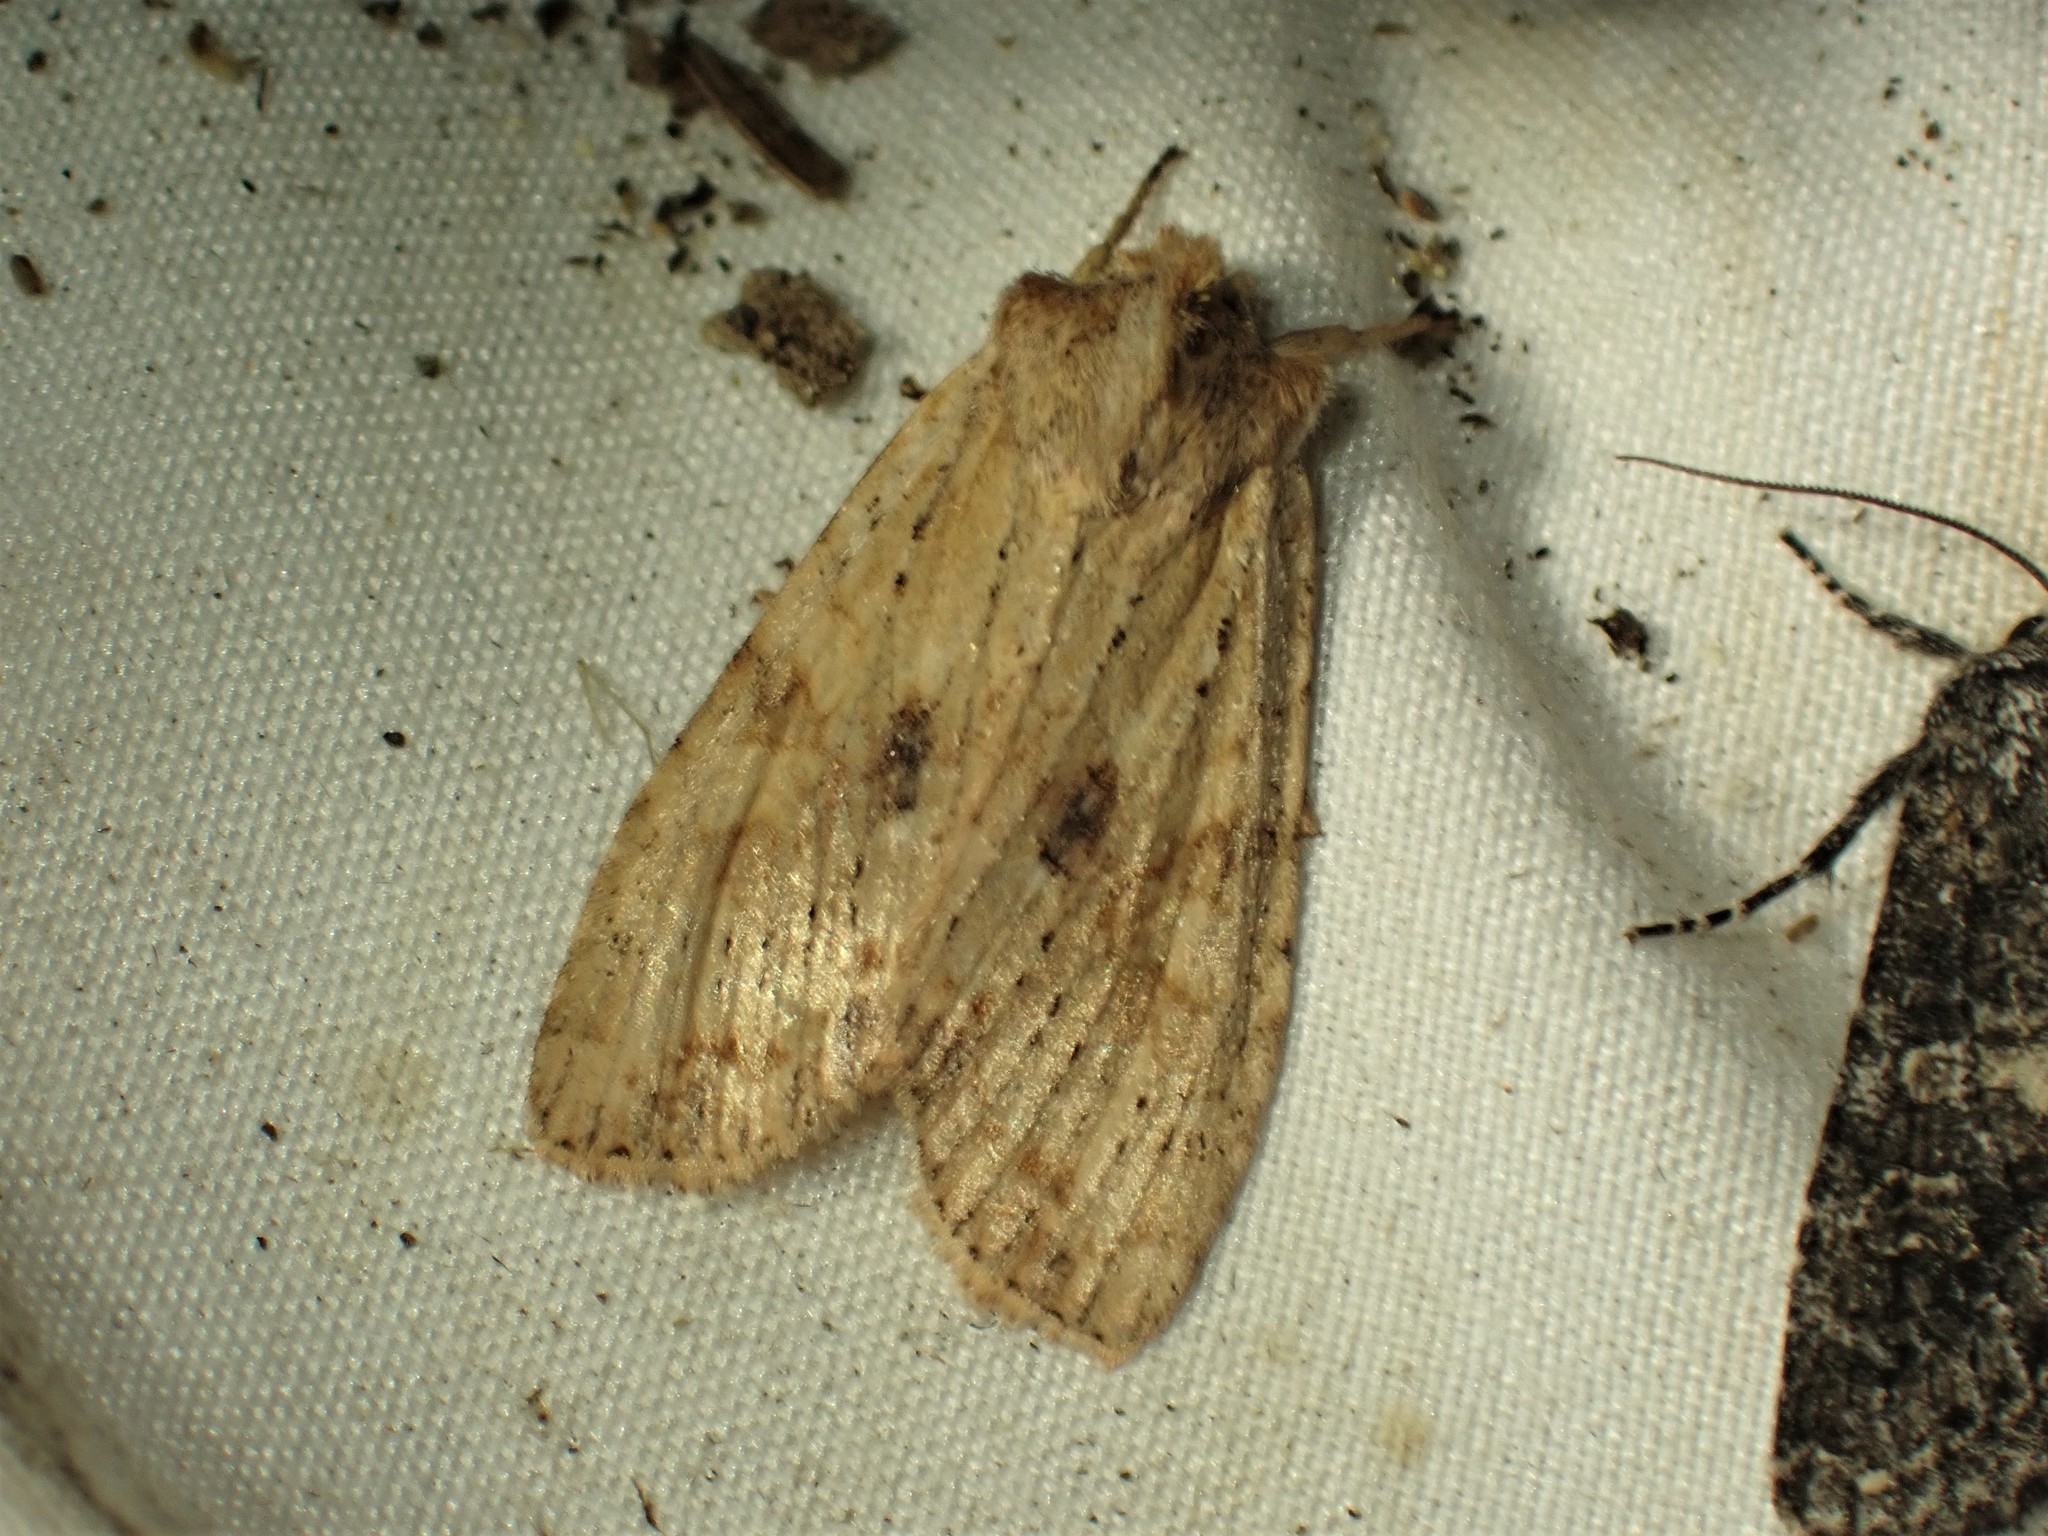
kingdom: Animalia
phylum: Arthropoda
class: Insecta
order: Lepidoptera
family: Noctuidae
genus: Lithophane
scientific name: Lithophane innominata
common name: Nameless pinion moth
